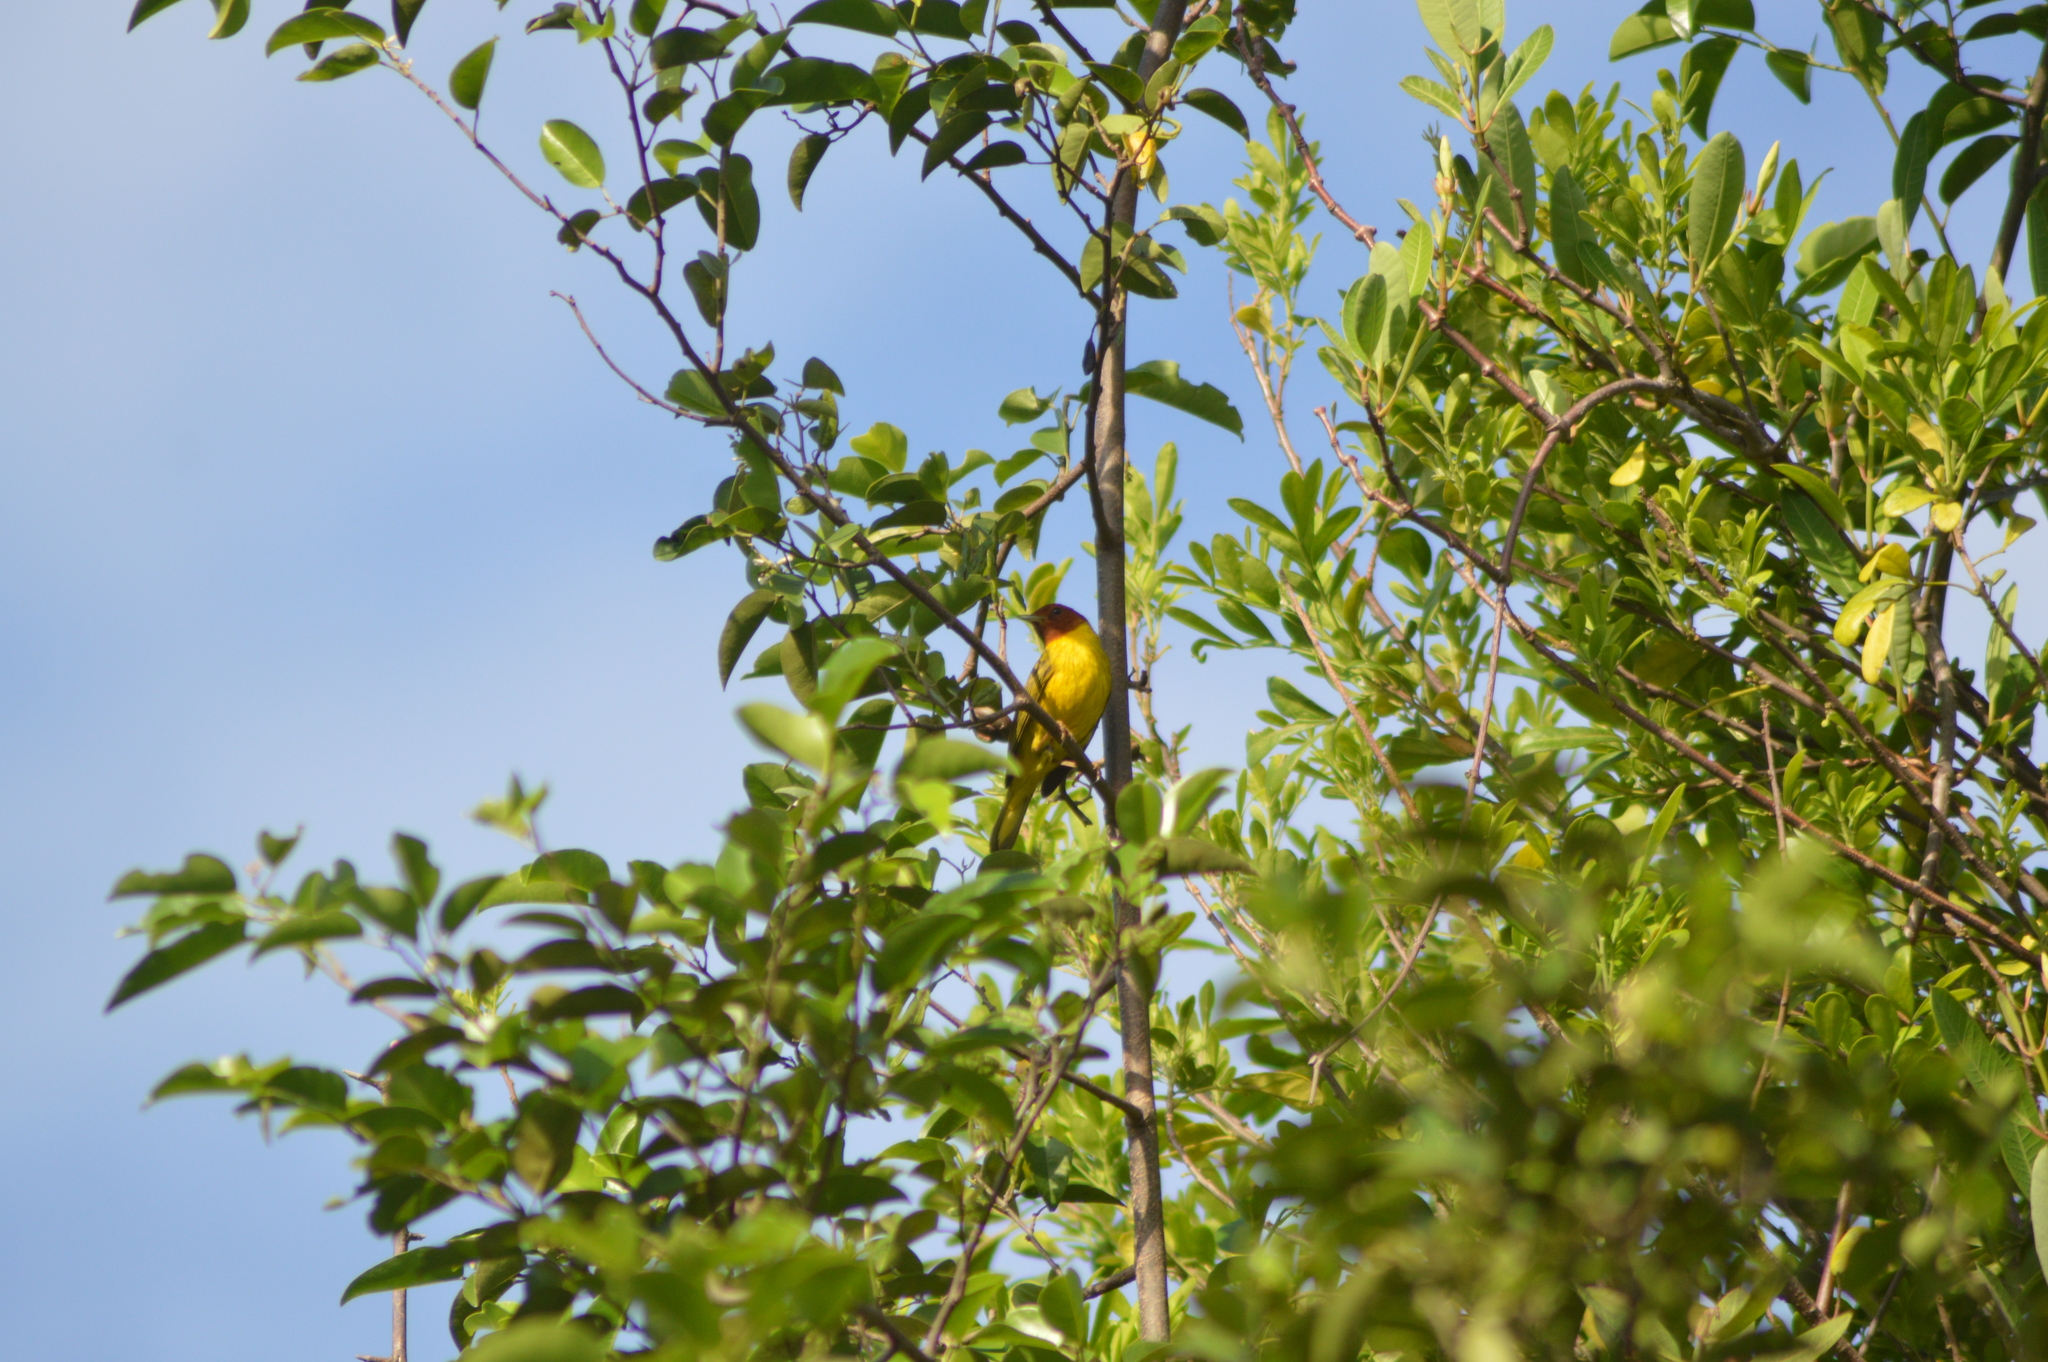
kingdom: Animalia
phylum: Chordata
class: Aves
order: Passeriformes
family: Parulidae
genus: Setophaga
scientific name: Setophaga petechia
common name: Yellow warbler
